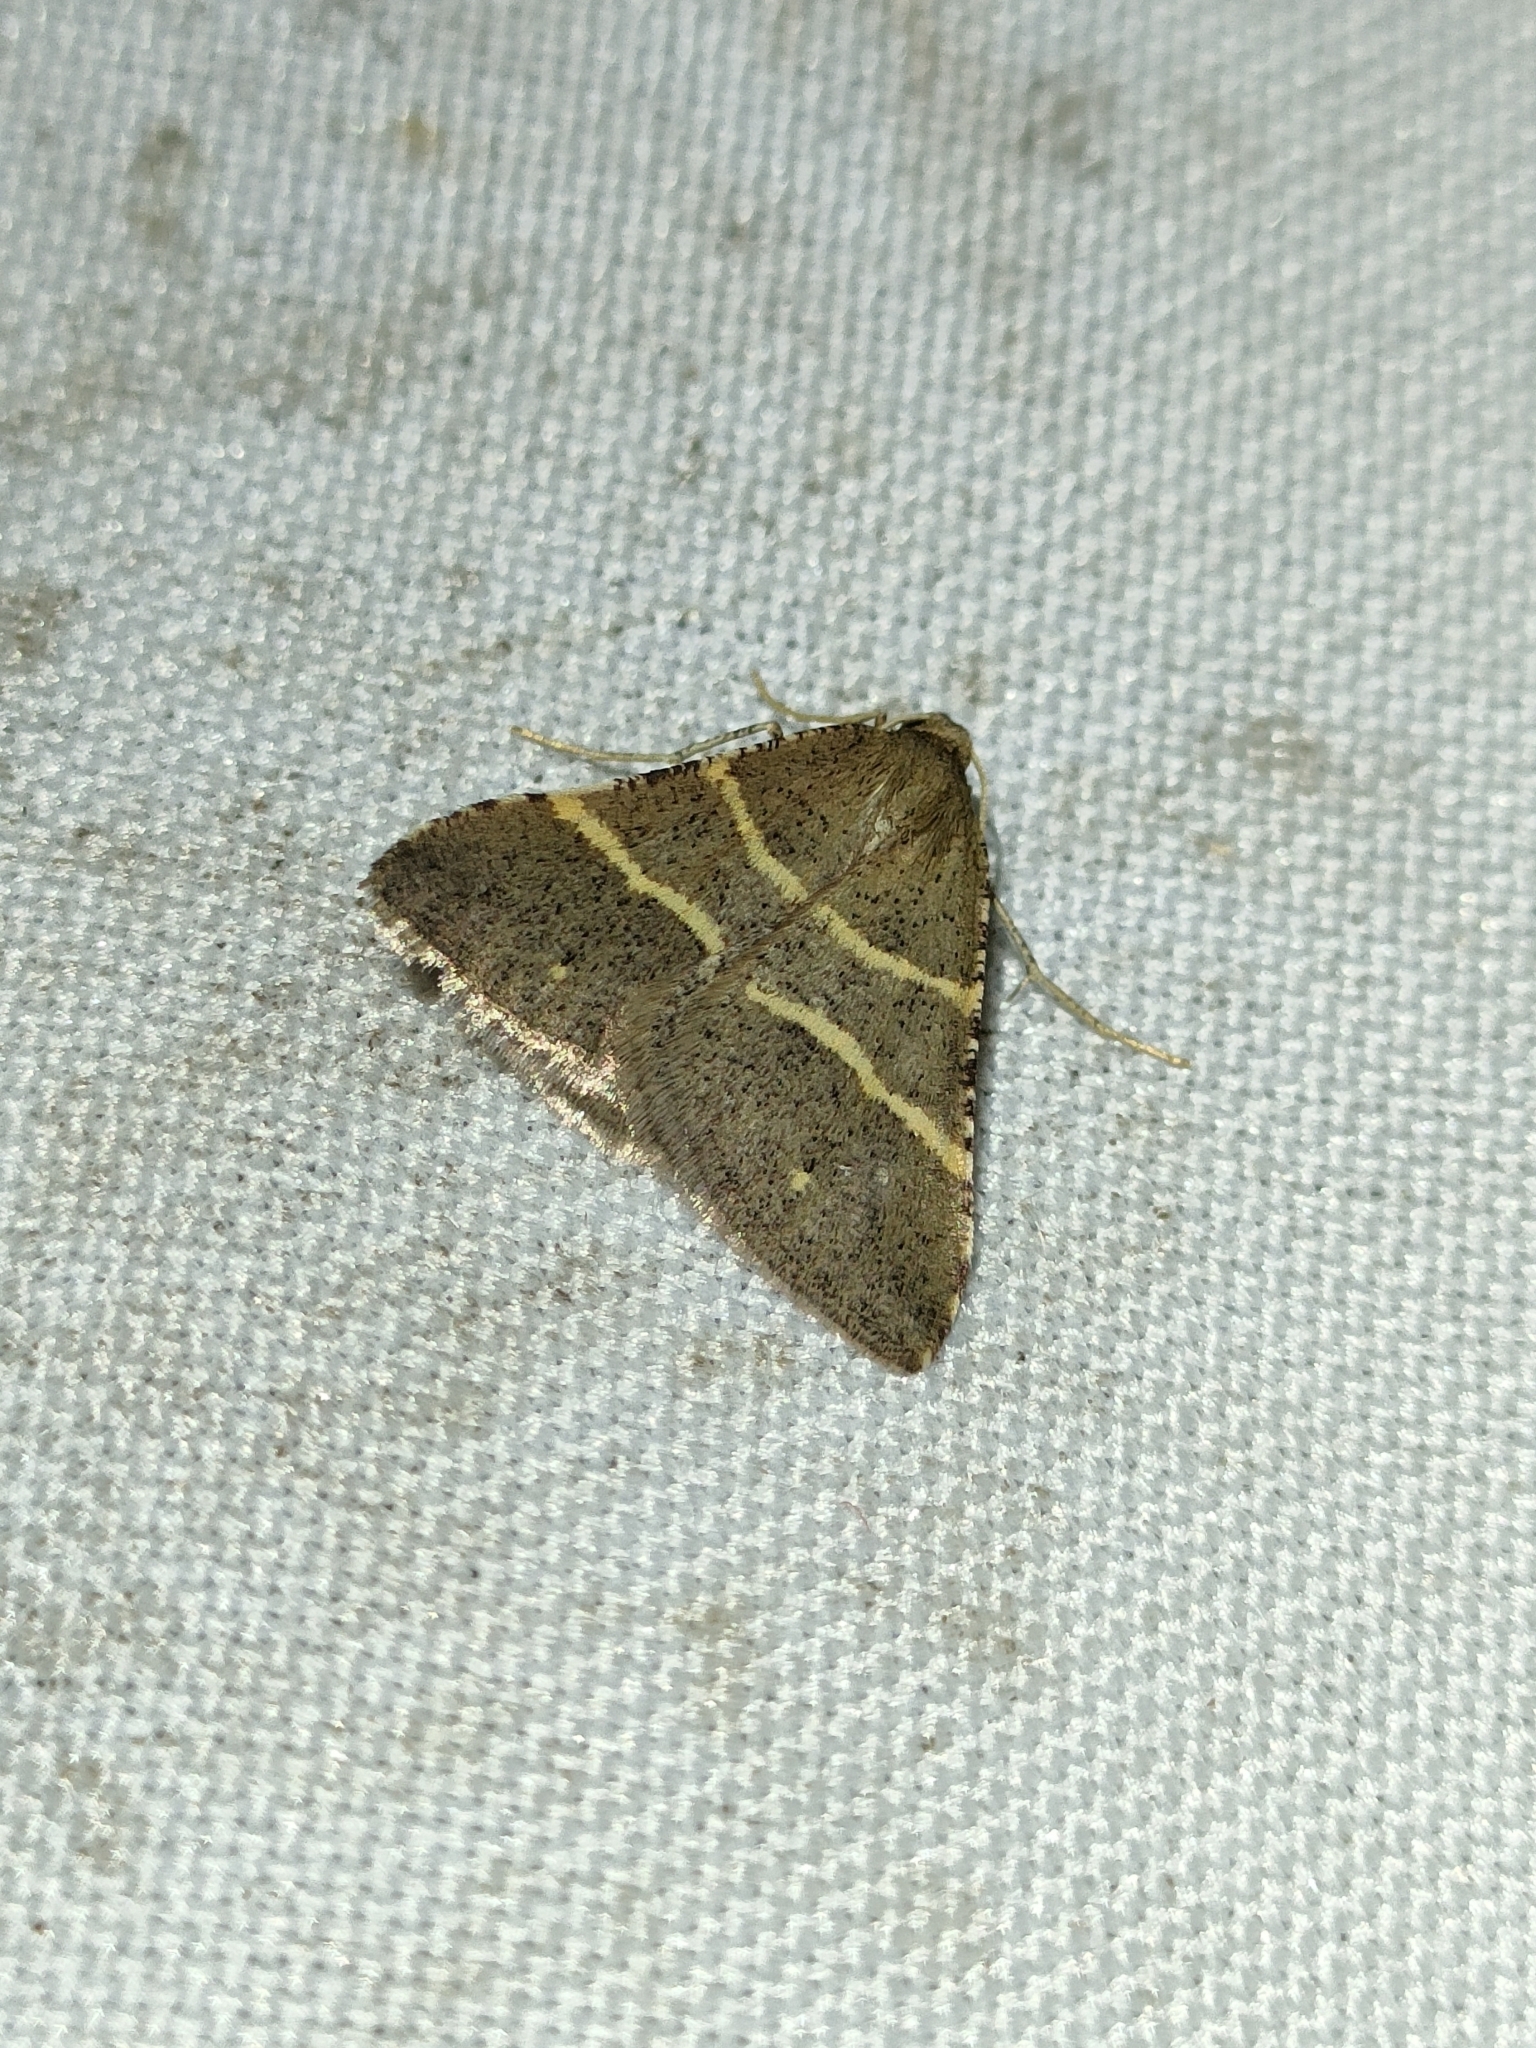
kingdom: Animalia
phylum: Arthropoda
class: Insecta
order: Lepidoptera
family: Pterophoridae
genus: Pterophorus
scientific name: Pterophorus Petrophora narbonea
